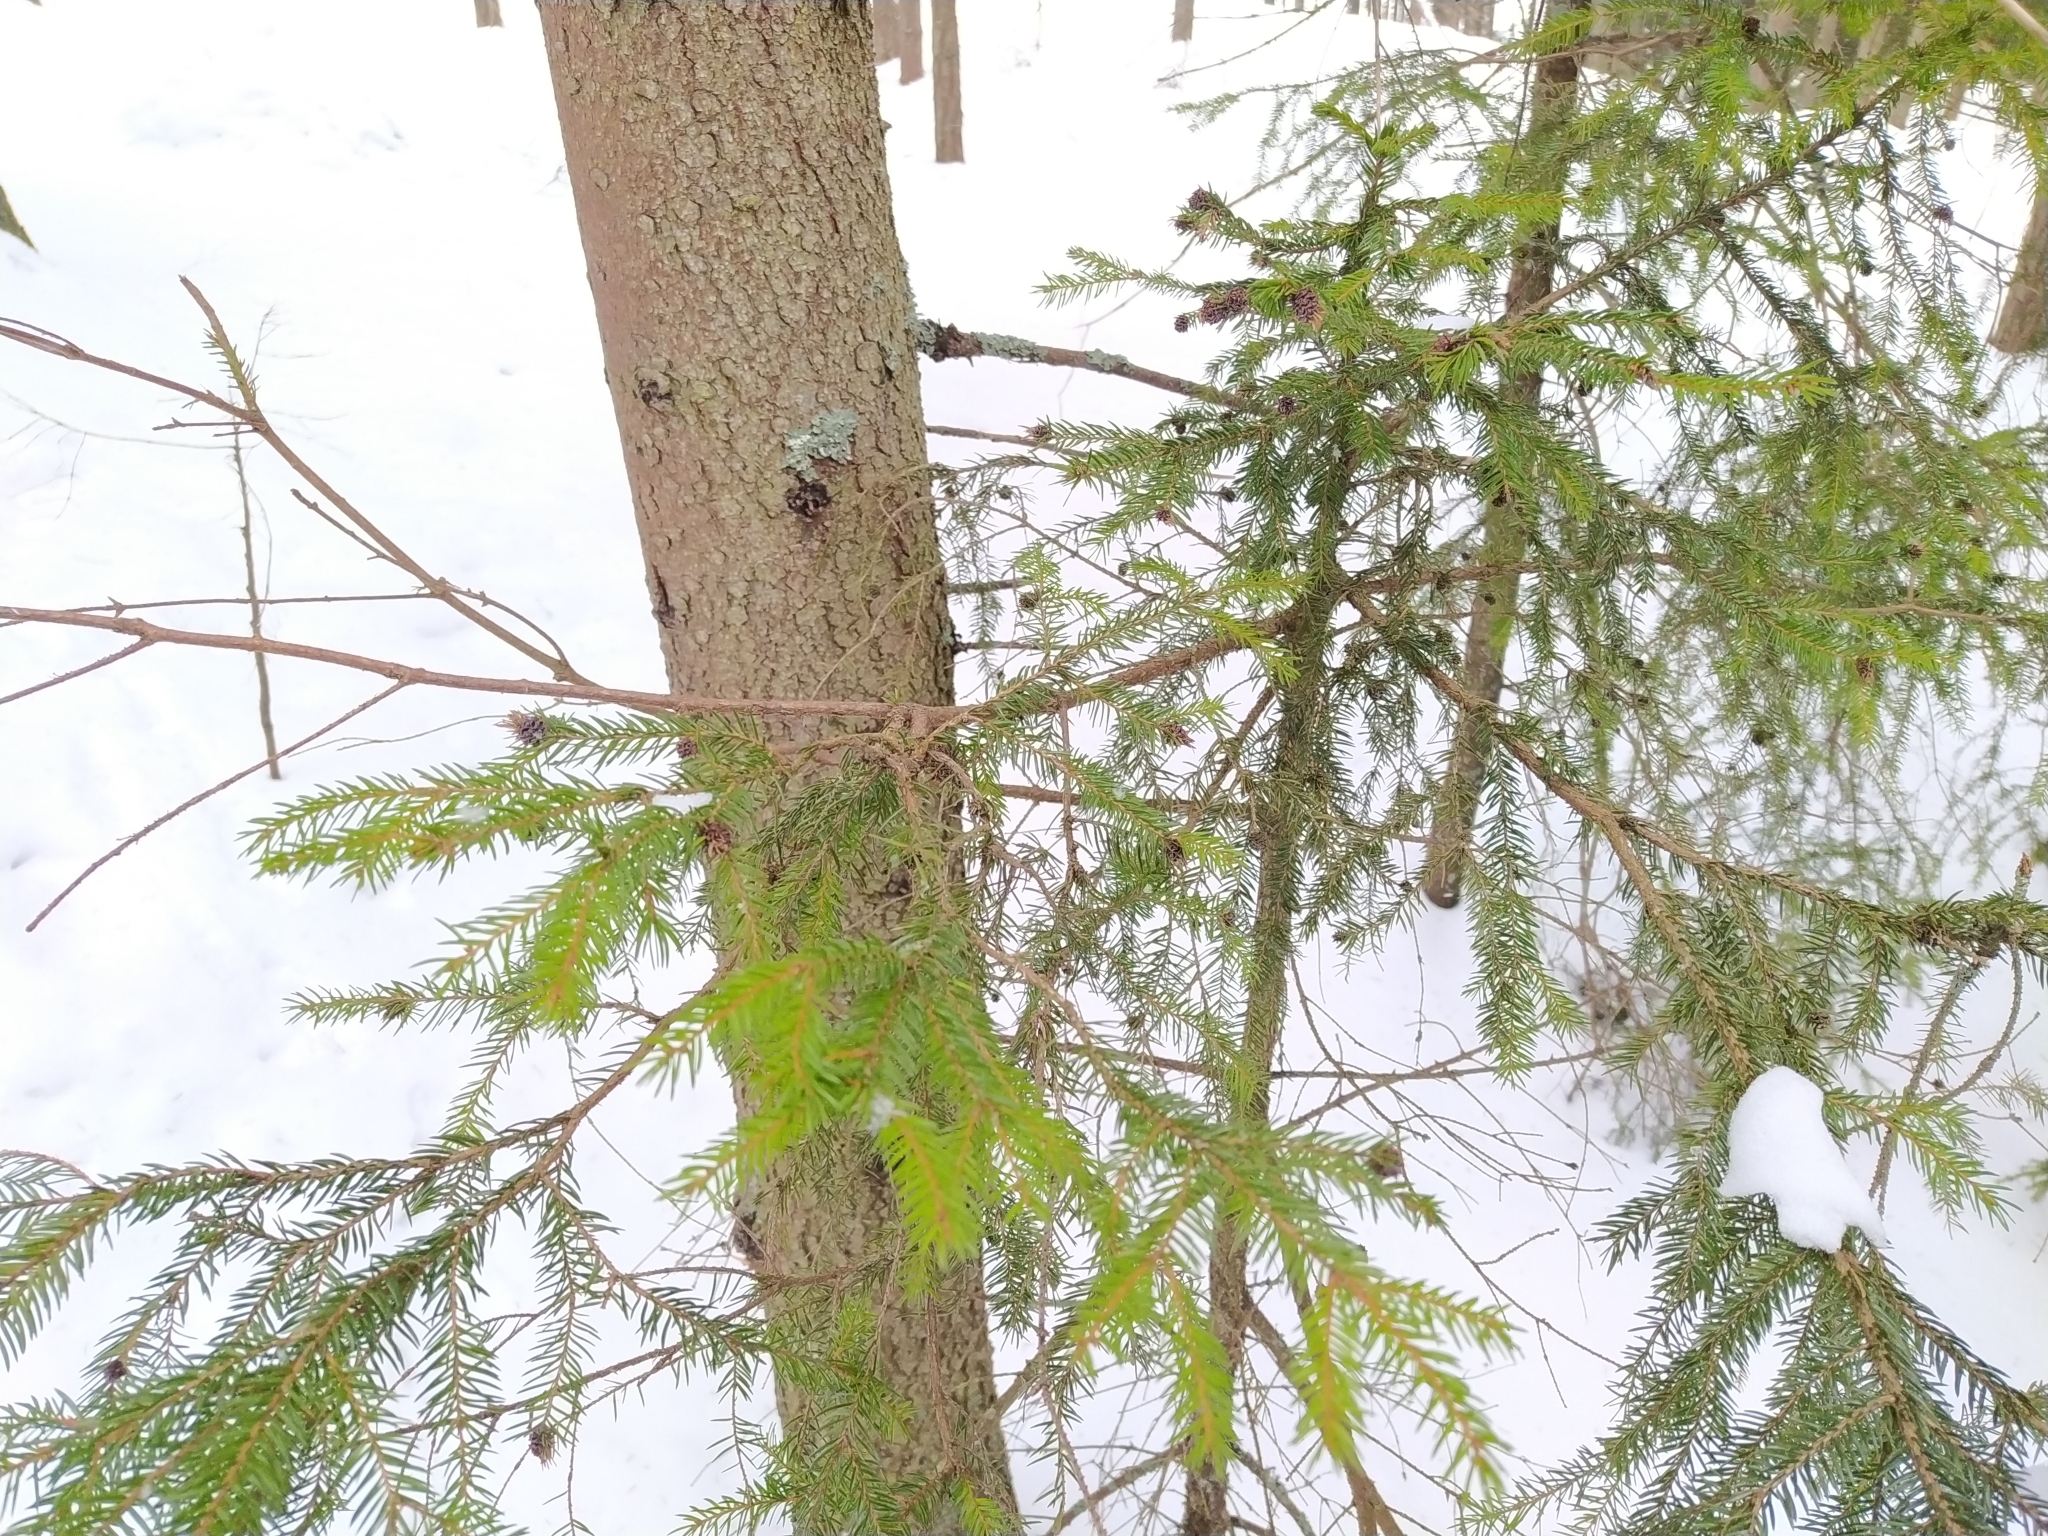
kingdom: Plantae
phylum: Tracheophyta
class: Pinopsida
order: Pinales
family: Pinaceae
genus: Picea
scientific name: Picea abies
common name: Norway spruce
